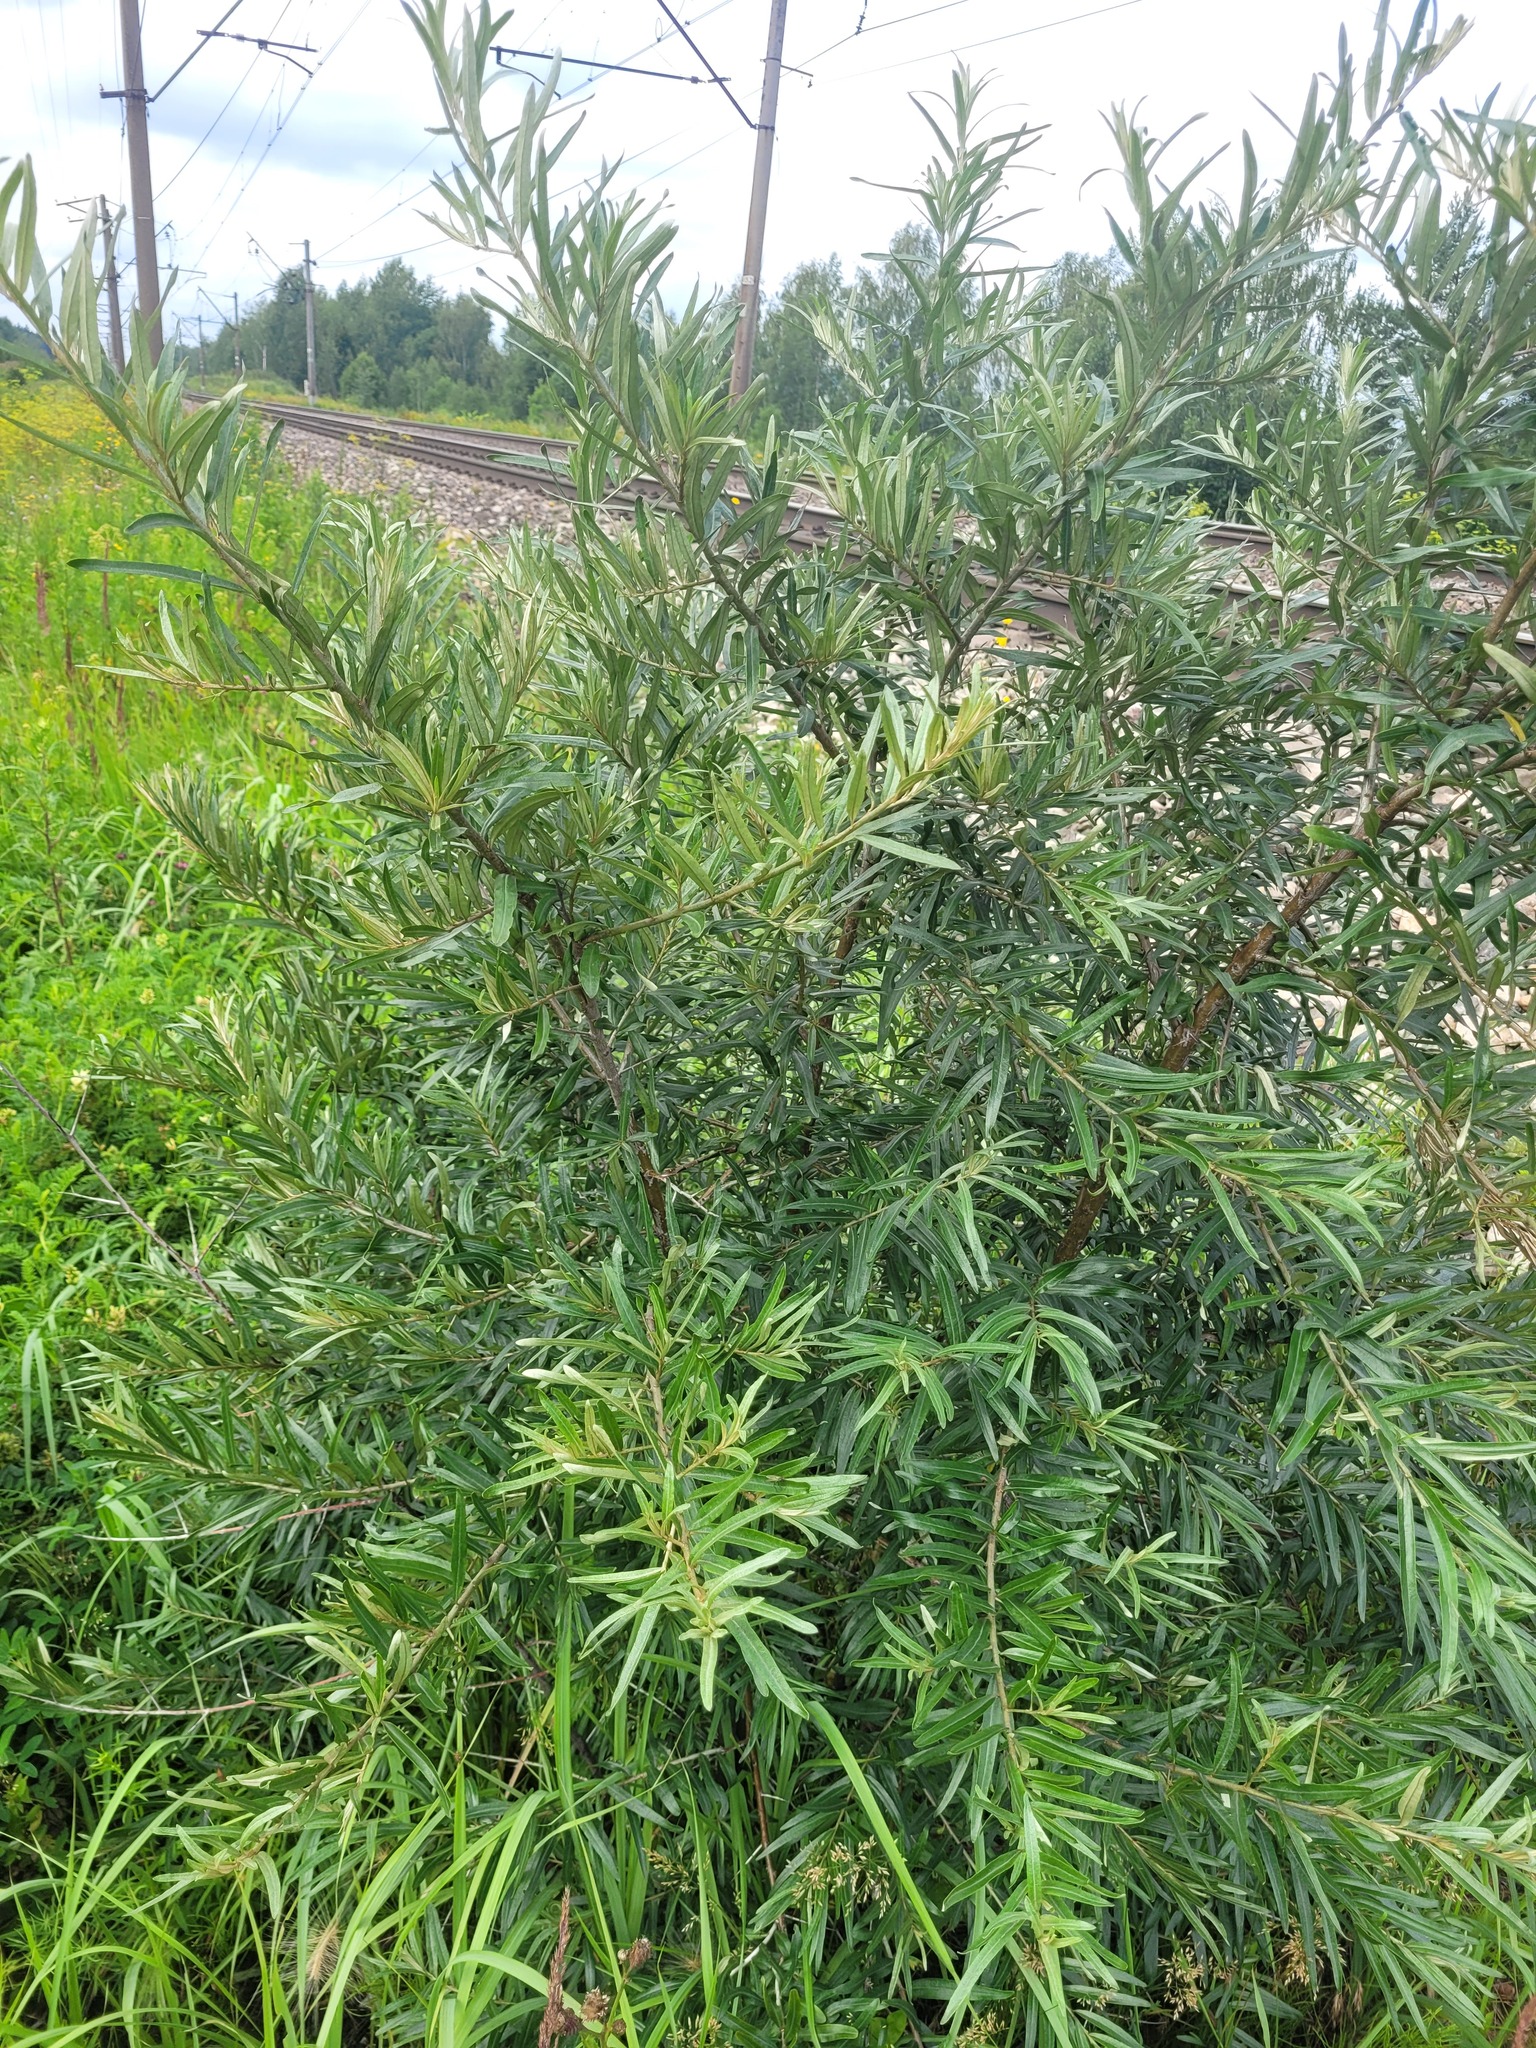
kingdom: Plantae
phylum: Tracheophyta
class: Magnoliopsida
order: Rosales
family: Elaeagnaceae
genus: Hippophae
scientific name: Hippophae rhamnoides
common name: Sea-buckthorn
